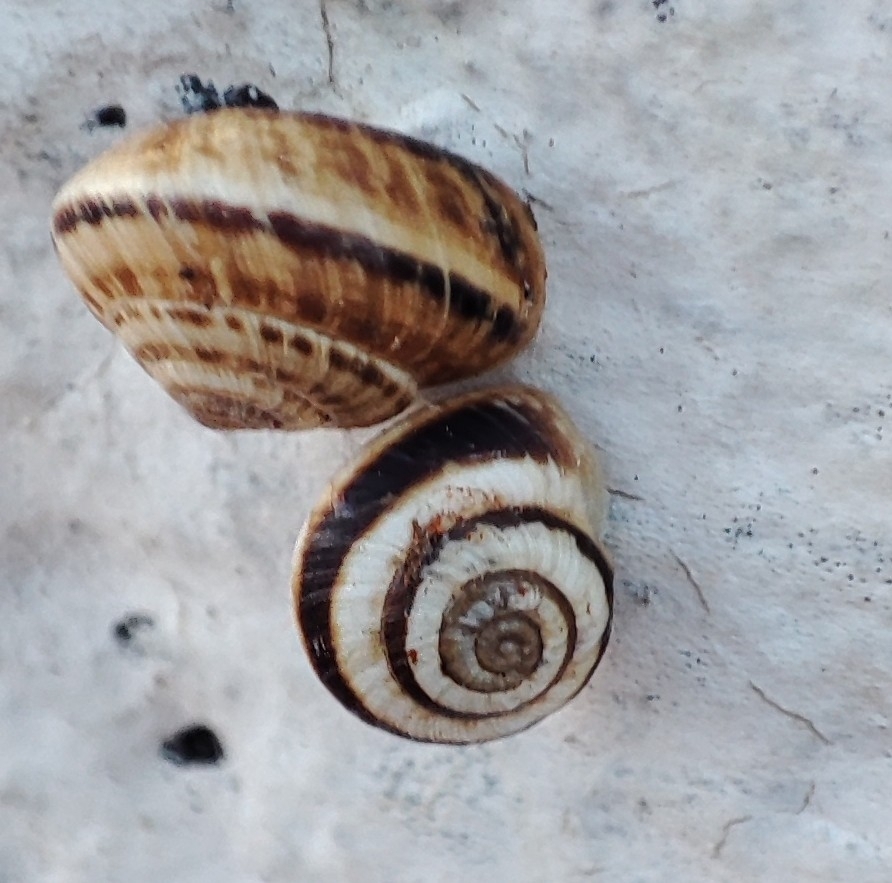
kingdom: Animalia
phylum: Mollusca
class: Gastropoda
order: Stylommatophora
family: Geomitridae
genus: Cernuella
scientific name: Cernuella virgata
